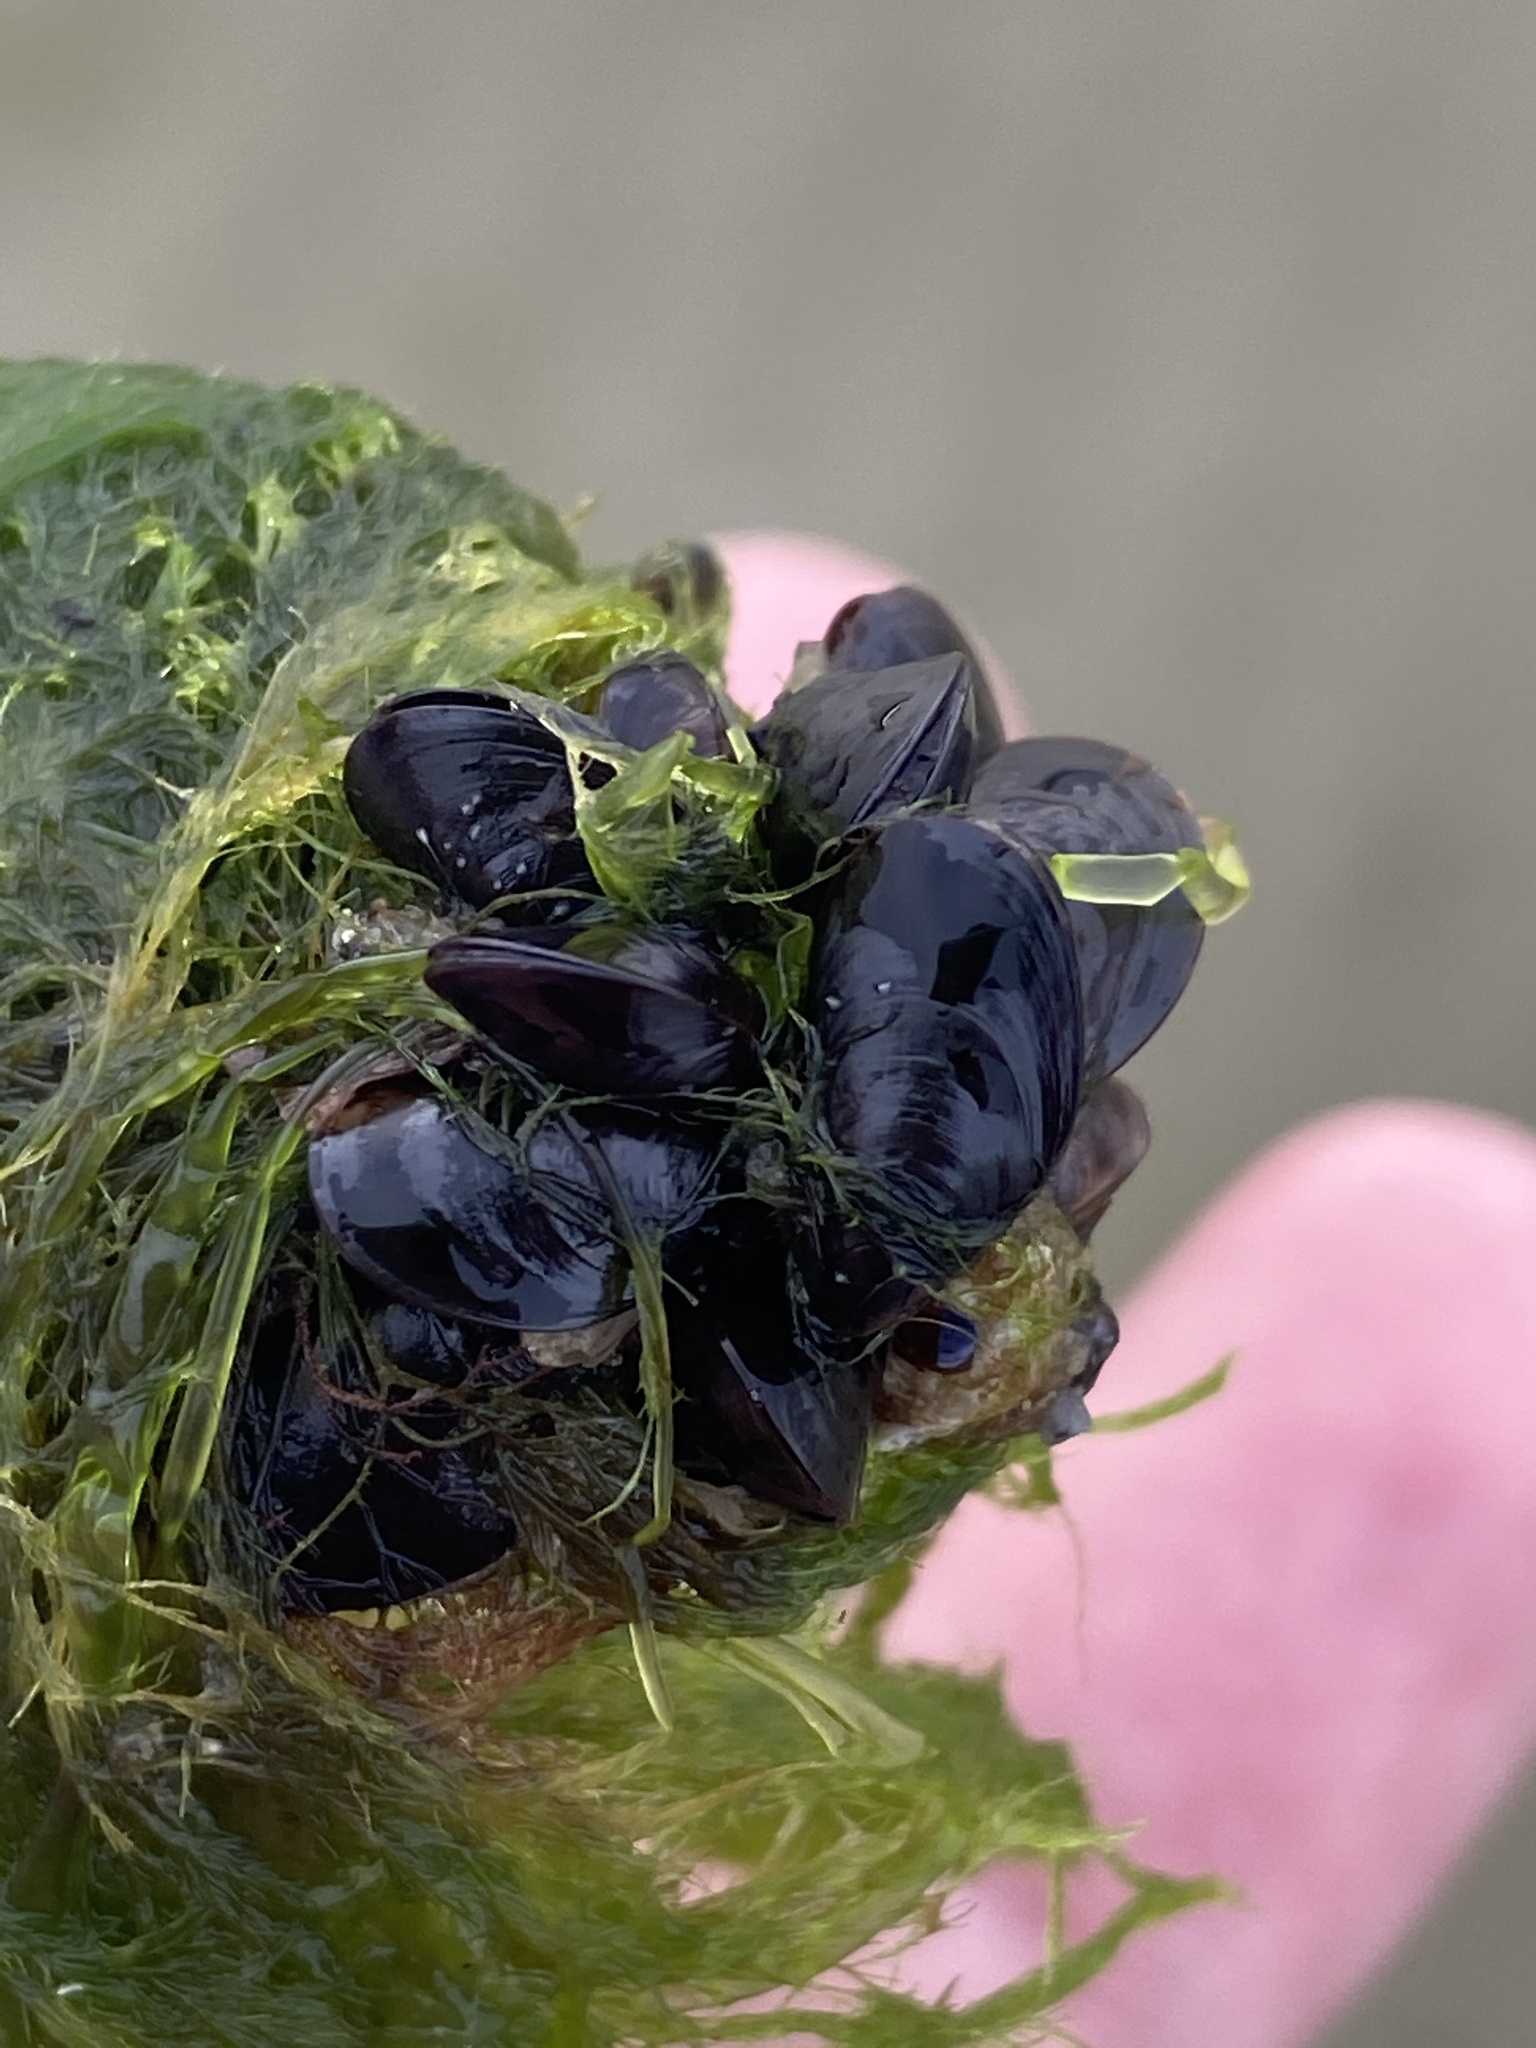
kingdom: Animalia
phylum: Mollusca
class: Bivalvia
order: Mytilida
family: Mytilidae
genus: Mytilus
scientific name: Mytilus edulis
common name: Blue mussel
